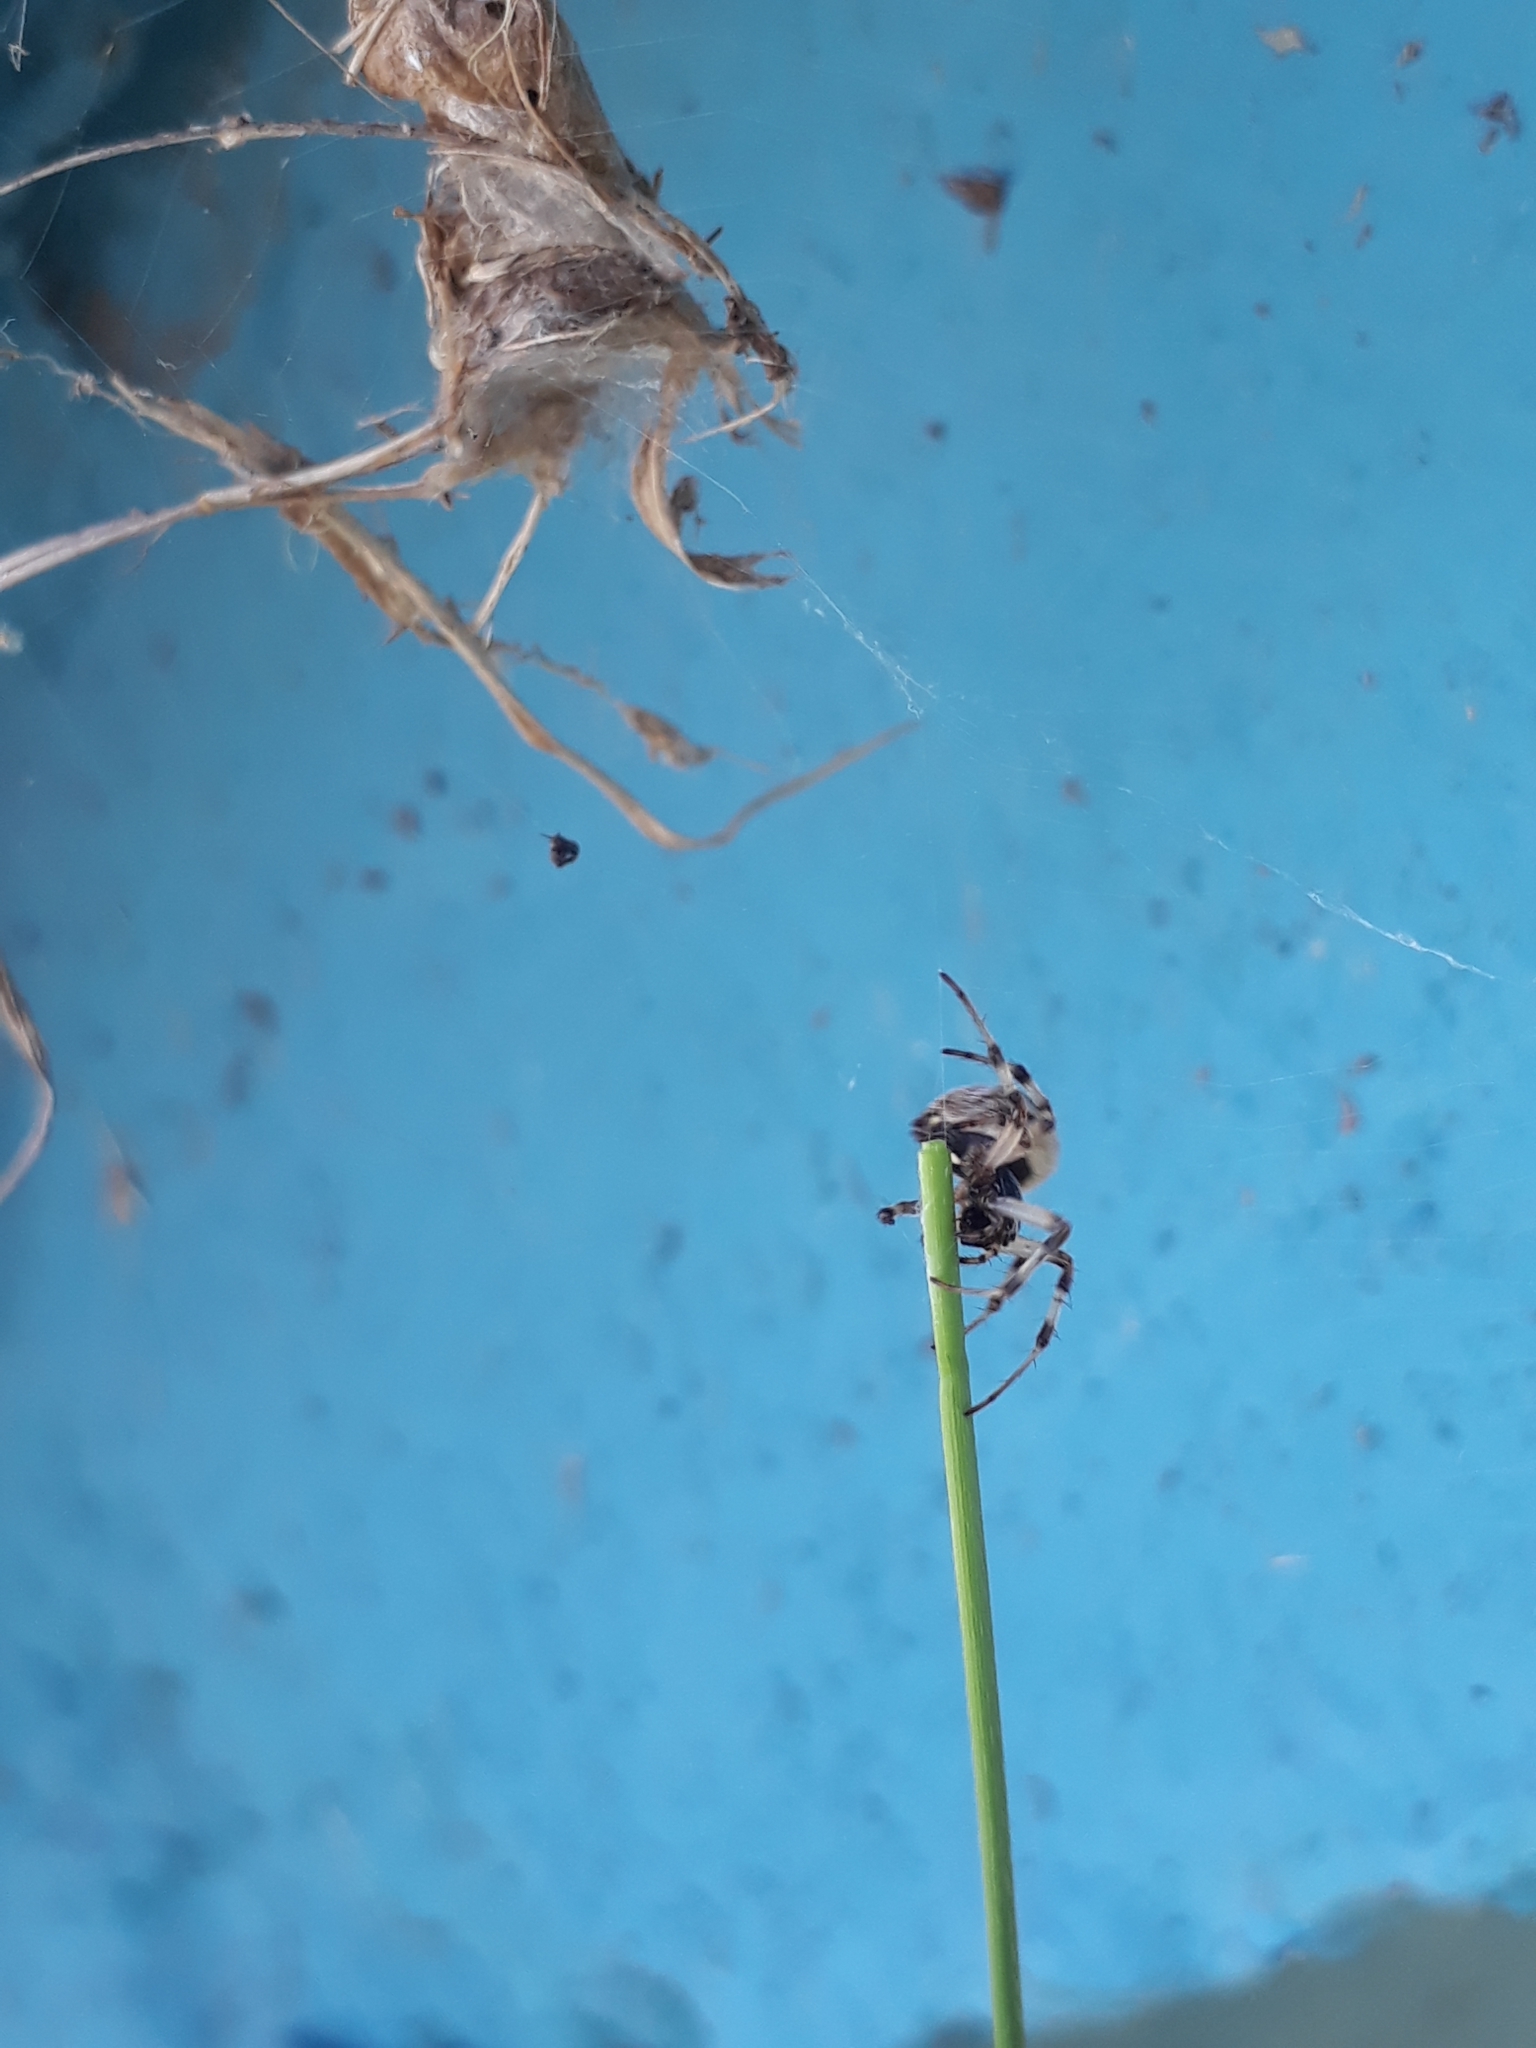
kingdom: Animalia
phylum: Arthropoda
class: Arachnida
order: Araneae
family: Araneidae
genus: Metepeira
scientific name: Metepeira
